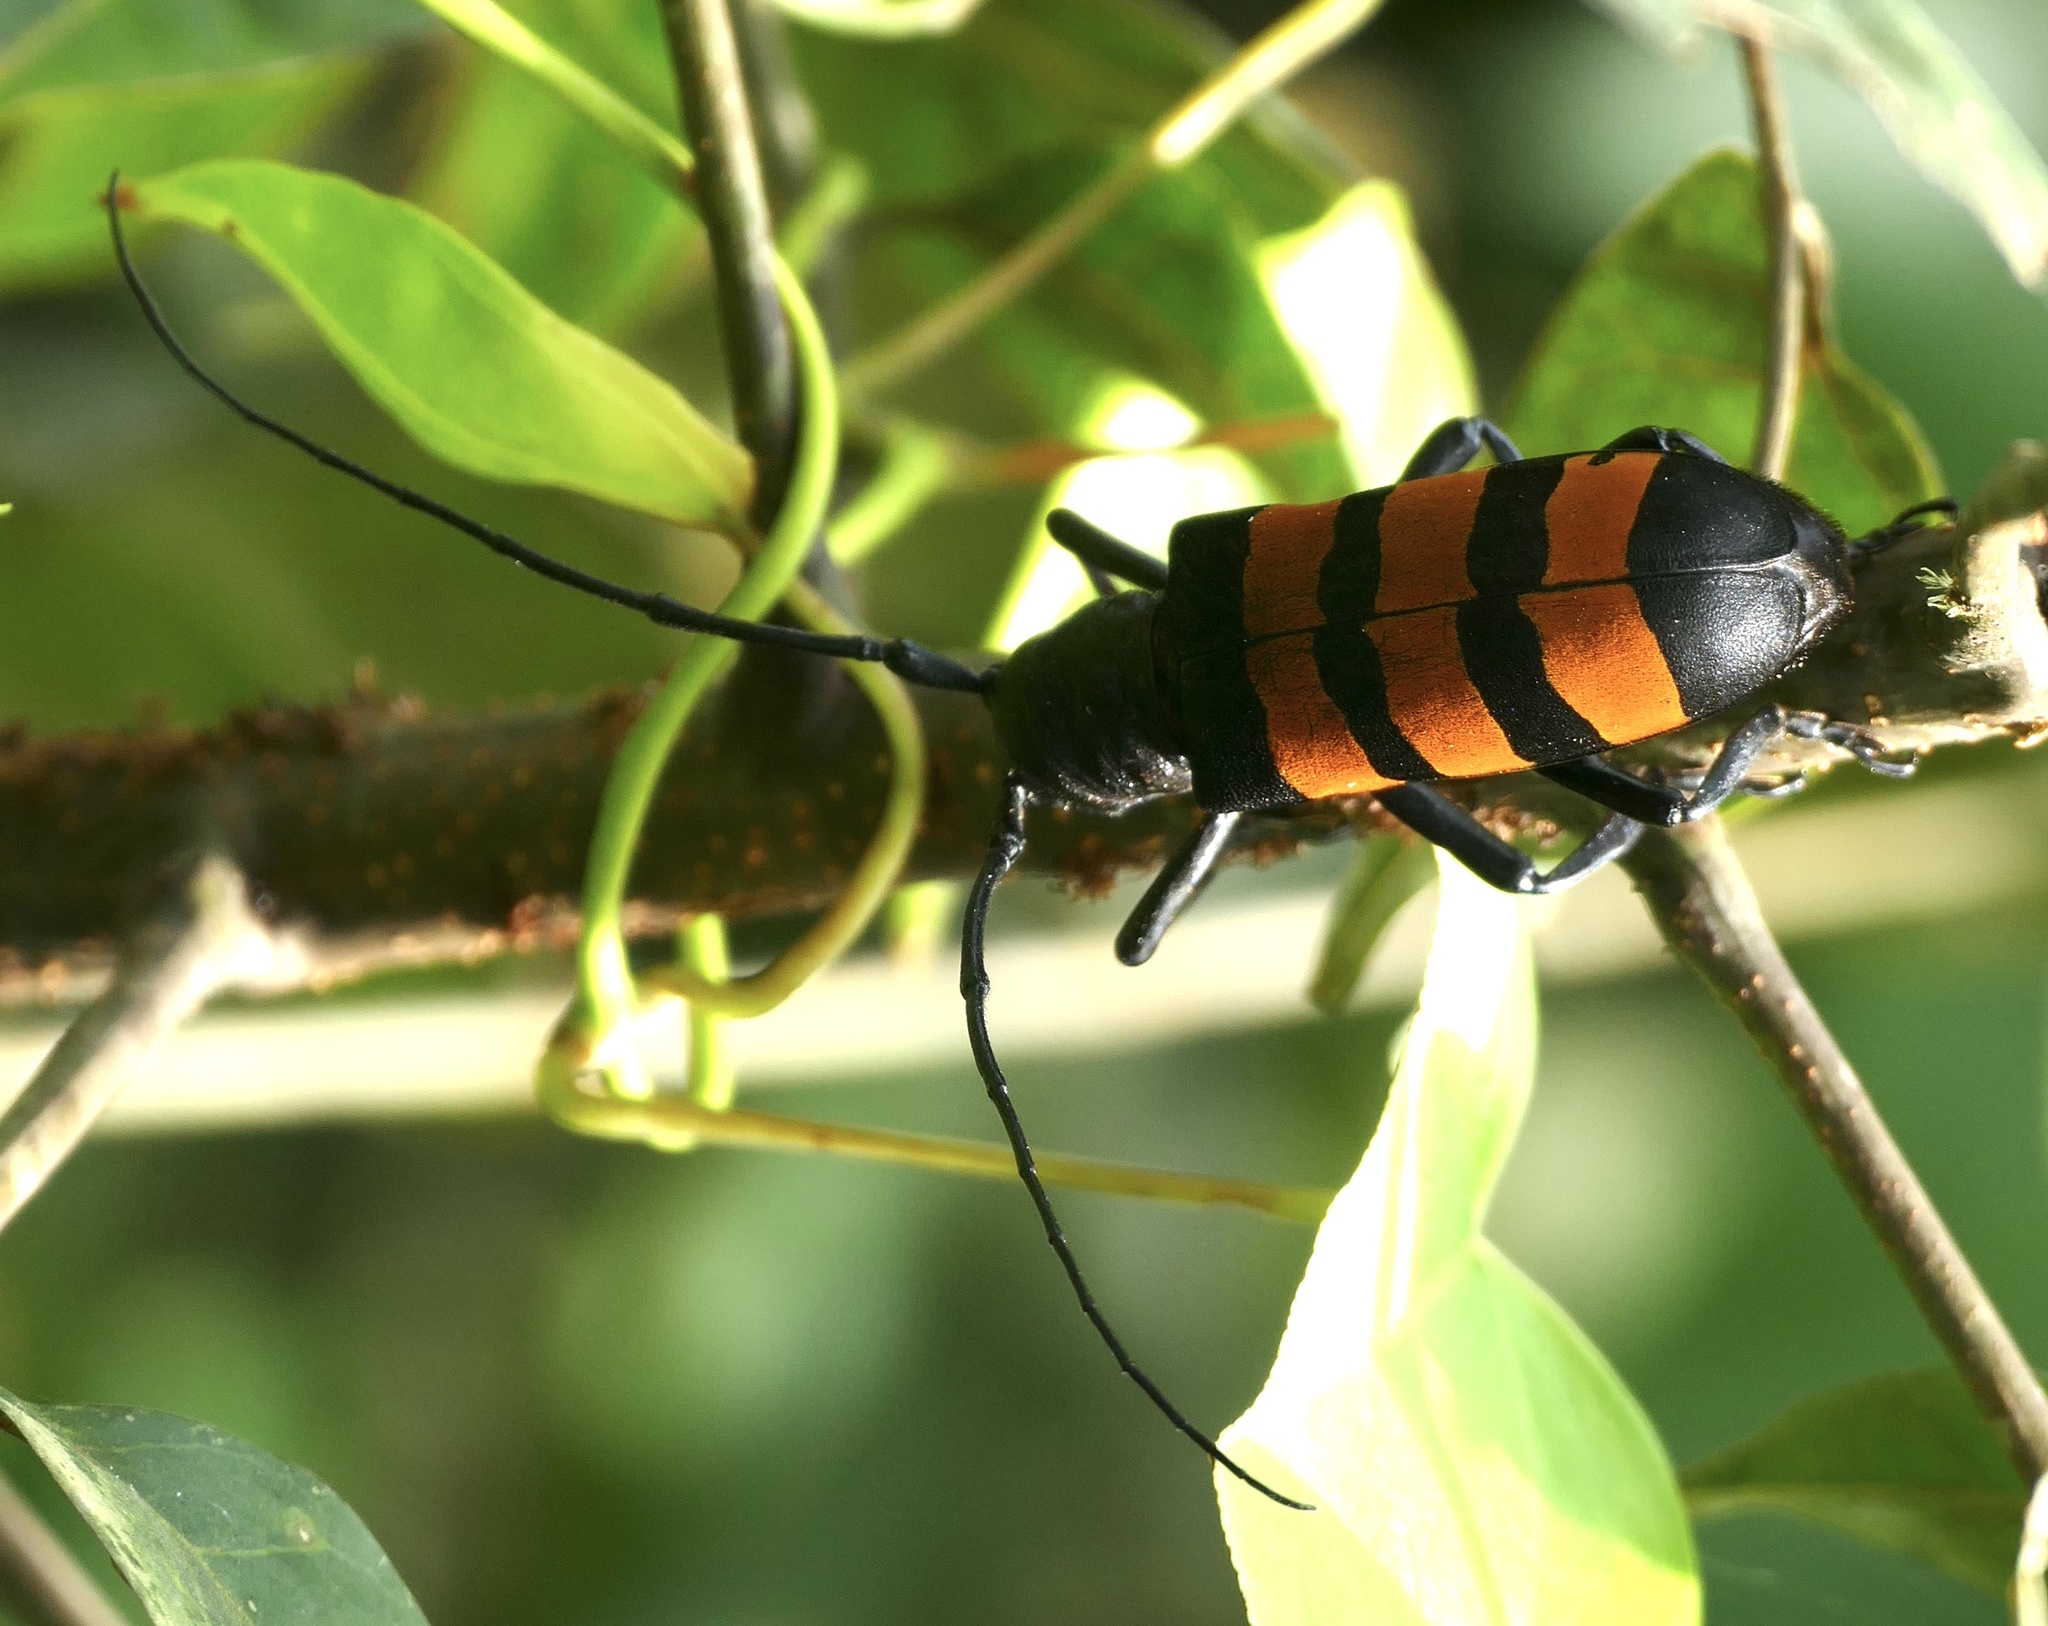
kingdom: Animalia
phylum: Arthropoda
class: Insecta
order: Coleoptera
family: Cerambycidae
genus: Diastocera
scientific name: Diastocera trifasciata
